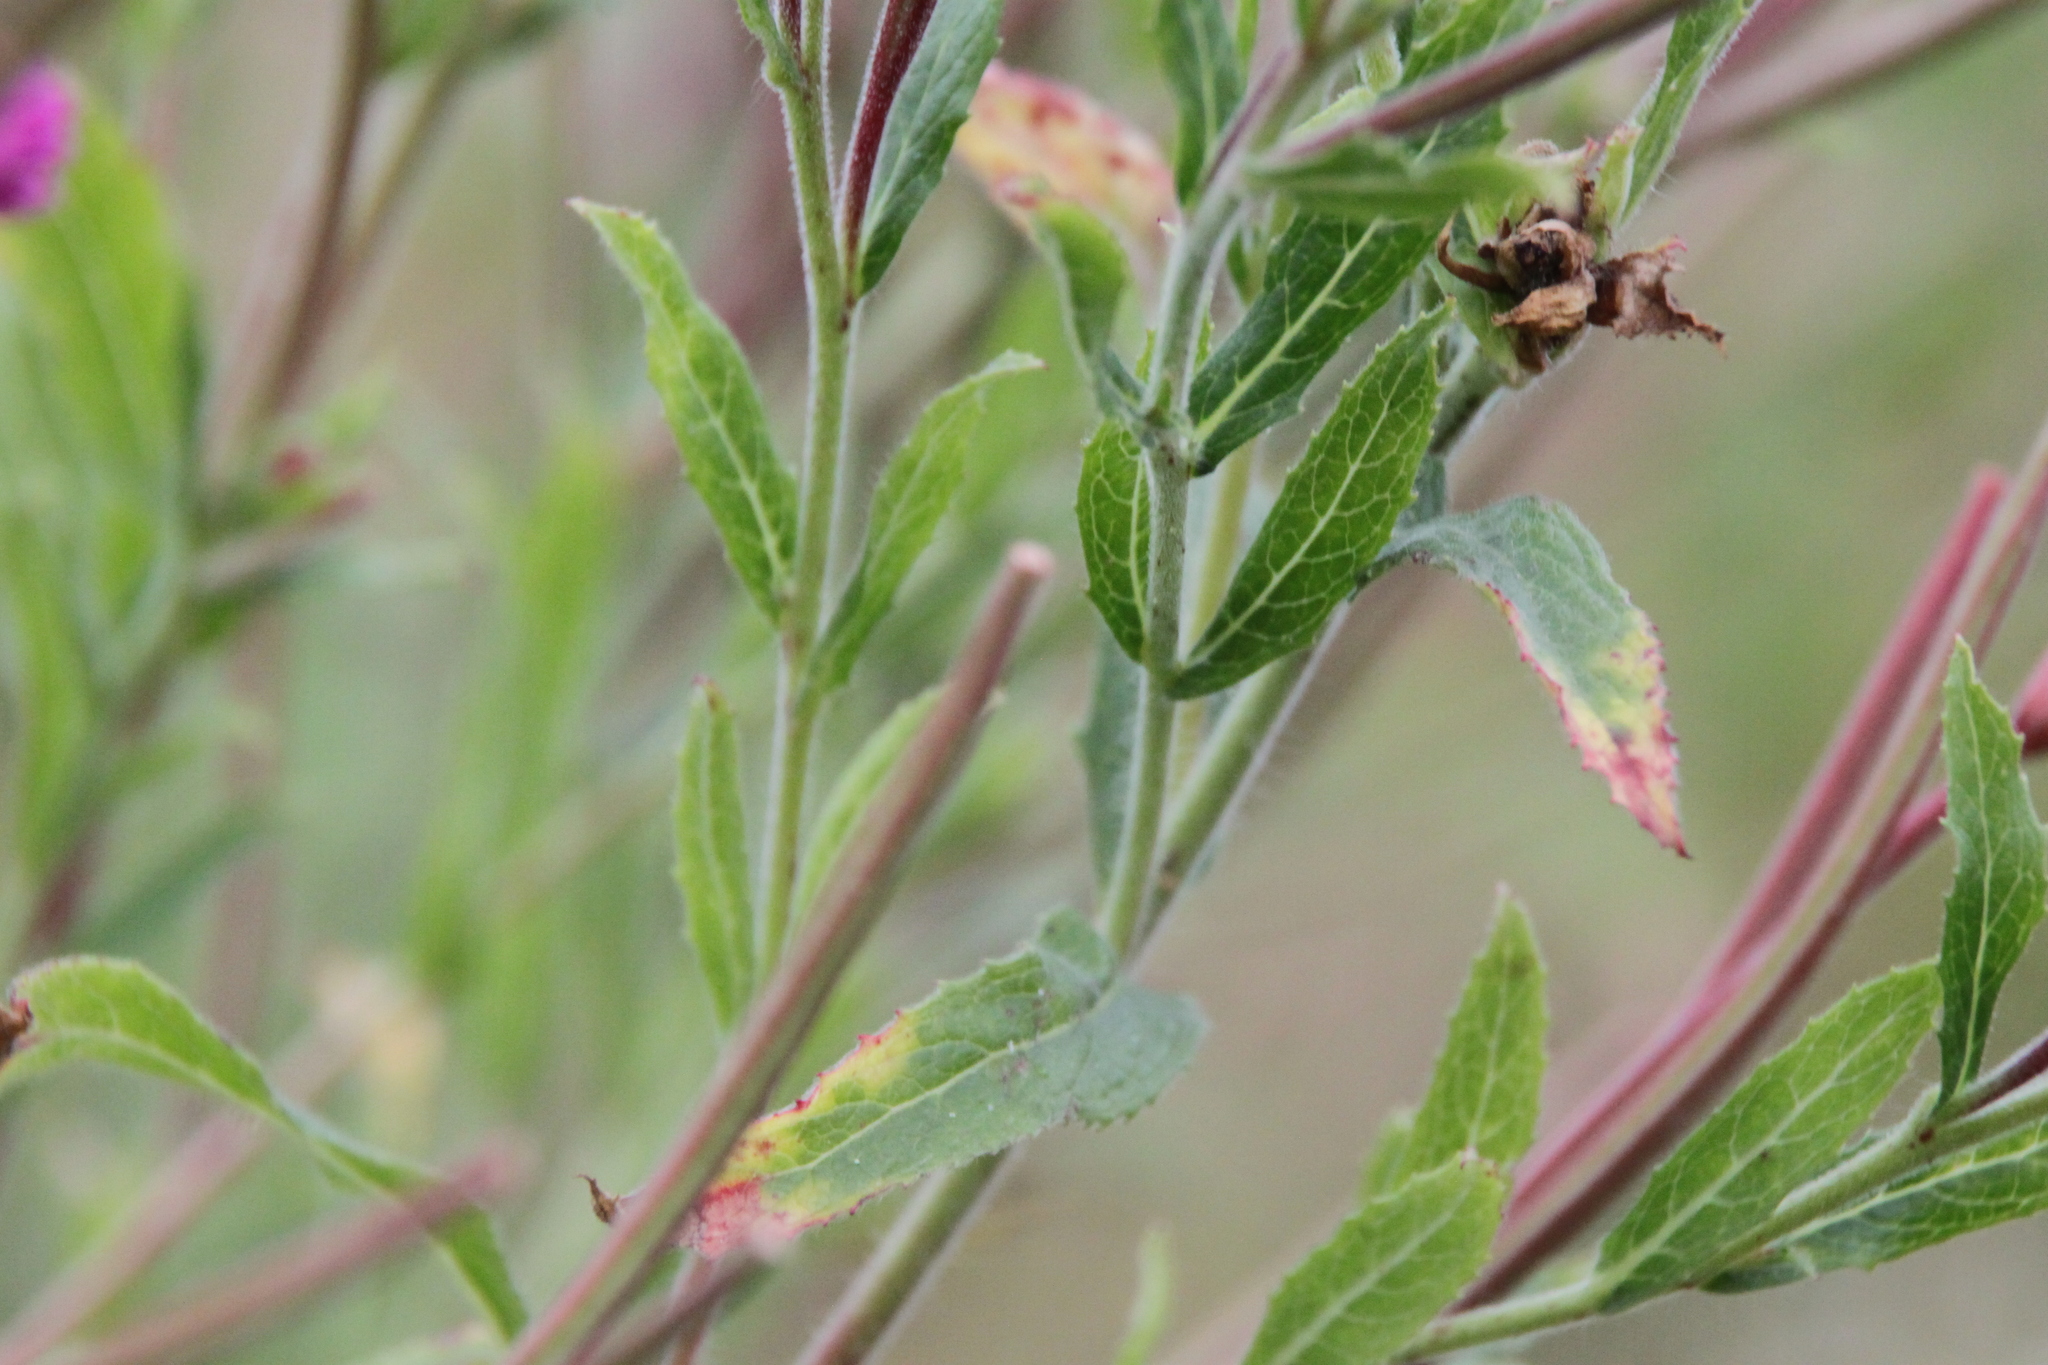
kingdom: Plantae
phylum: Tracheophyta
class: Magnoliopsida
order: Myrtales
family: Onagraceae
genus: Epilobium
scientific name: Epilobium hirsutum
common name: Great willowherb
